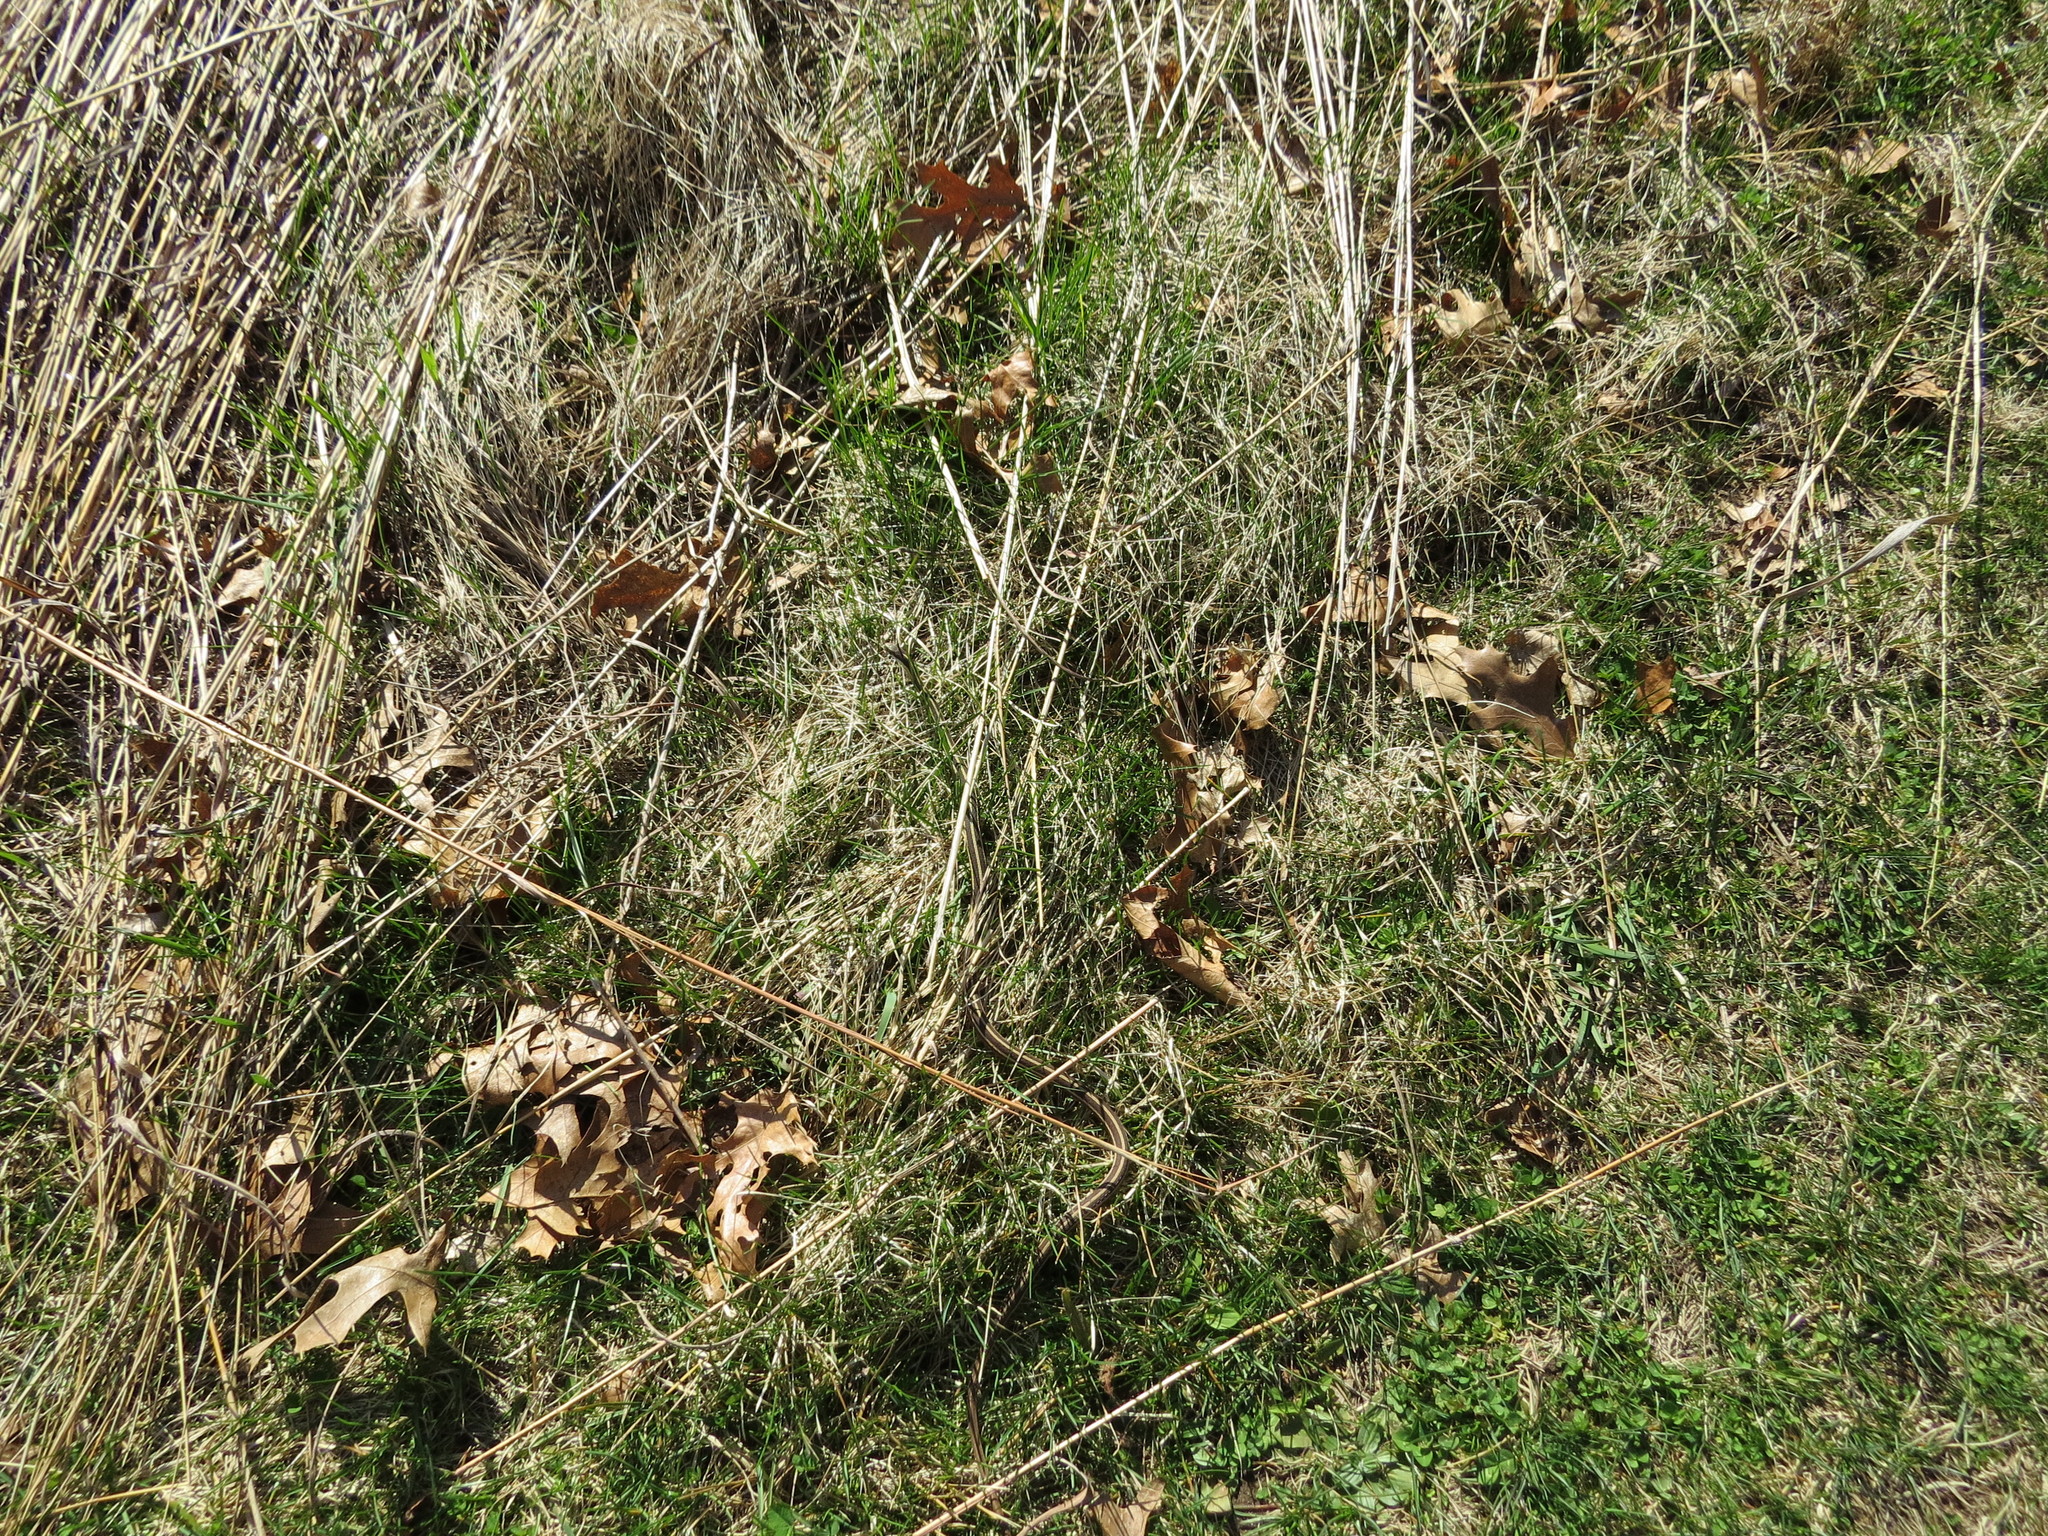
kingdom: Animalia
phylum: Chordata
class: Squamata
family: Colubridae
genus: Thamnophis
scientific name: Thamnophis saurita
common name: Eastern ribbonsnake
